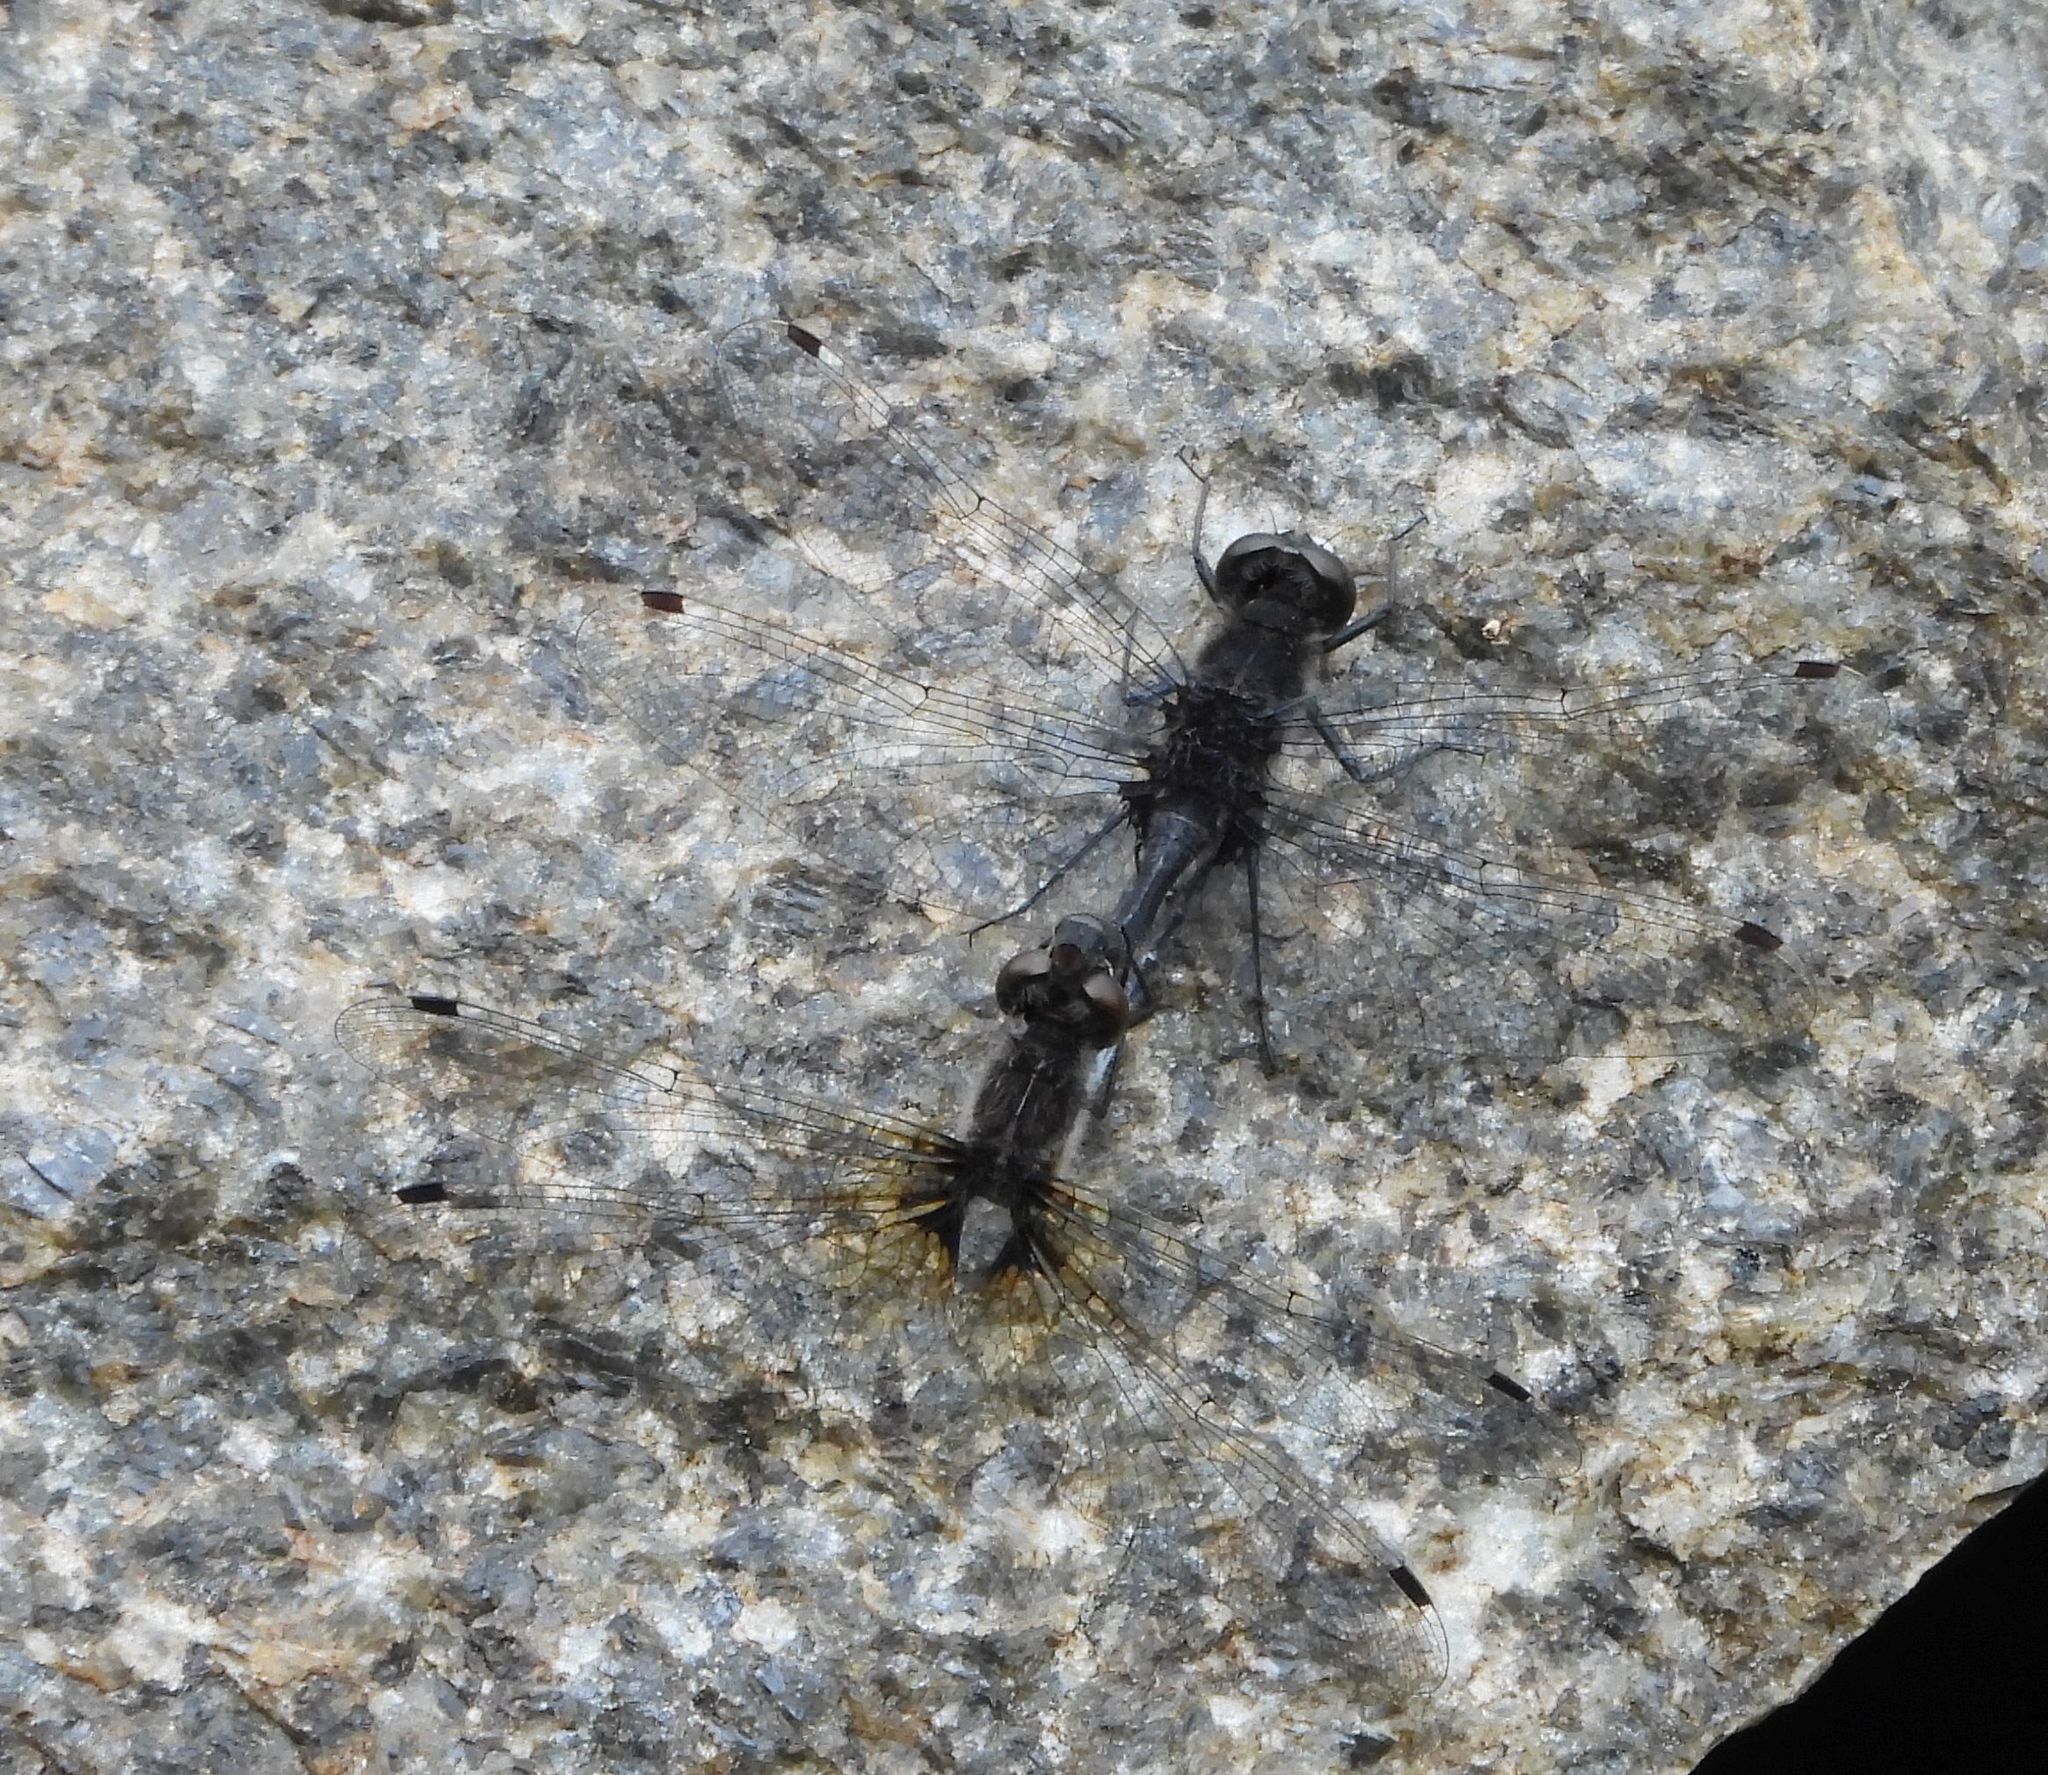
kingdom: Animalia
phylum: Arthropoda
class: Insecta
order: Odonata
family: Libellulidae
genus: Leucorrhinia
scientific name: Leucorrhinia intacta
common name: Dot-tailed whiteface
